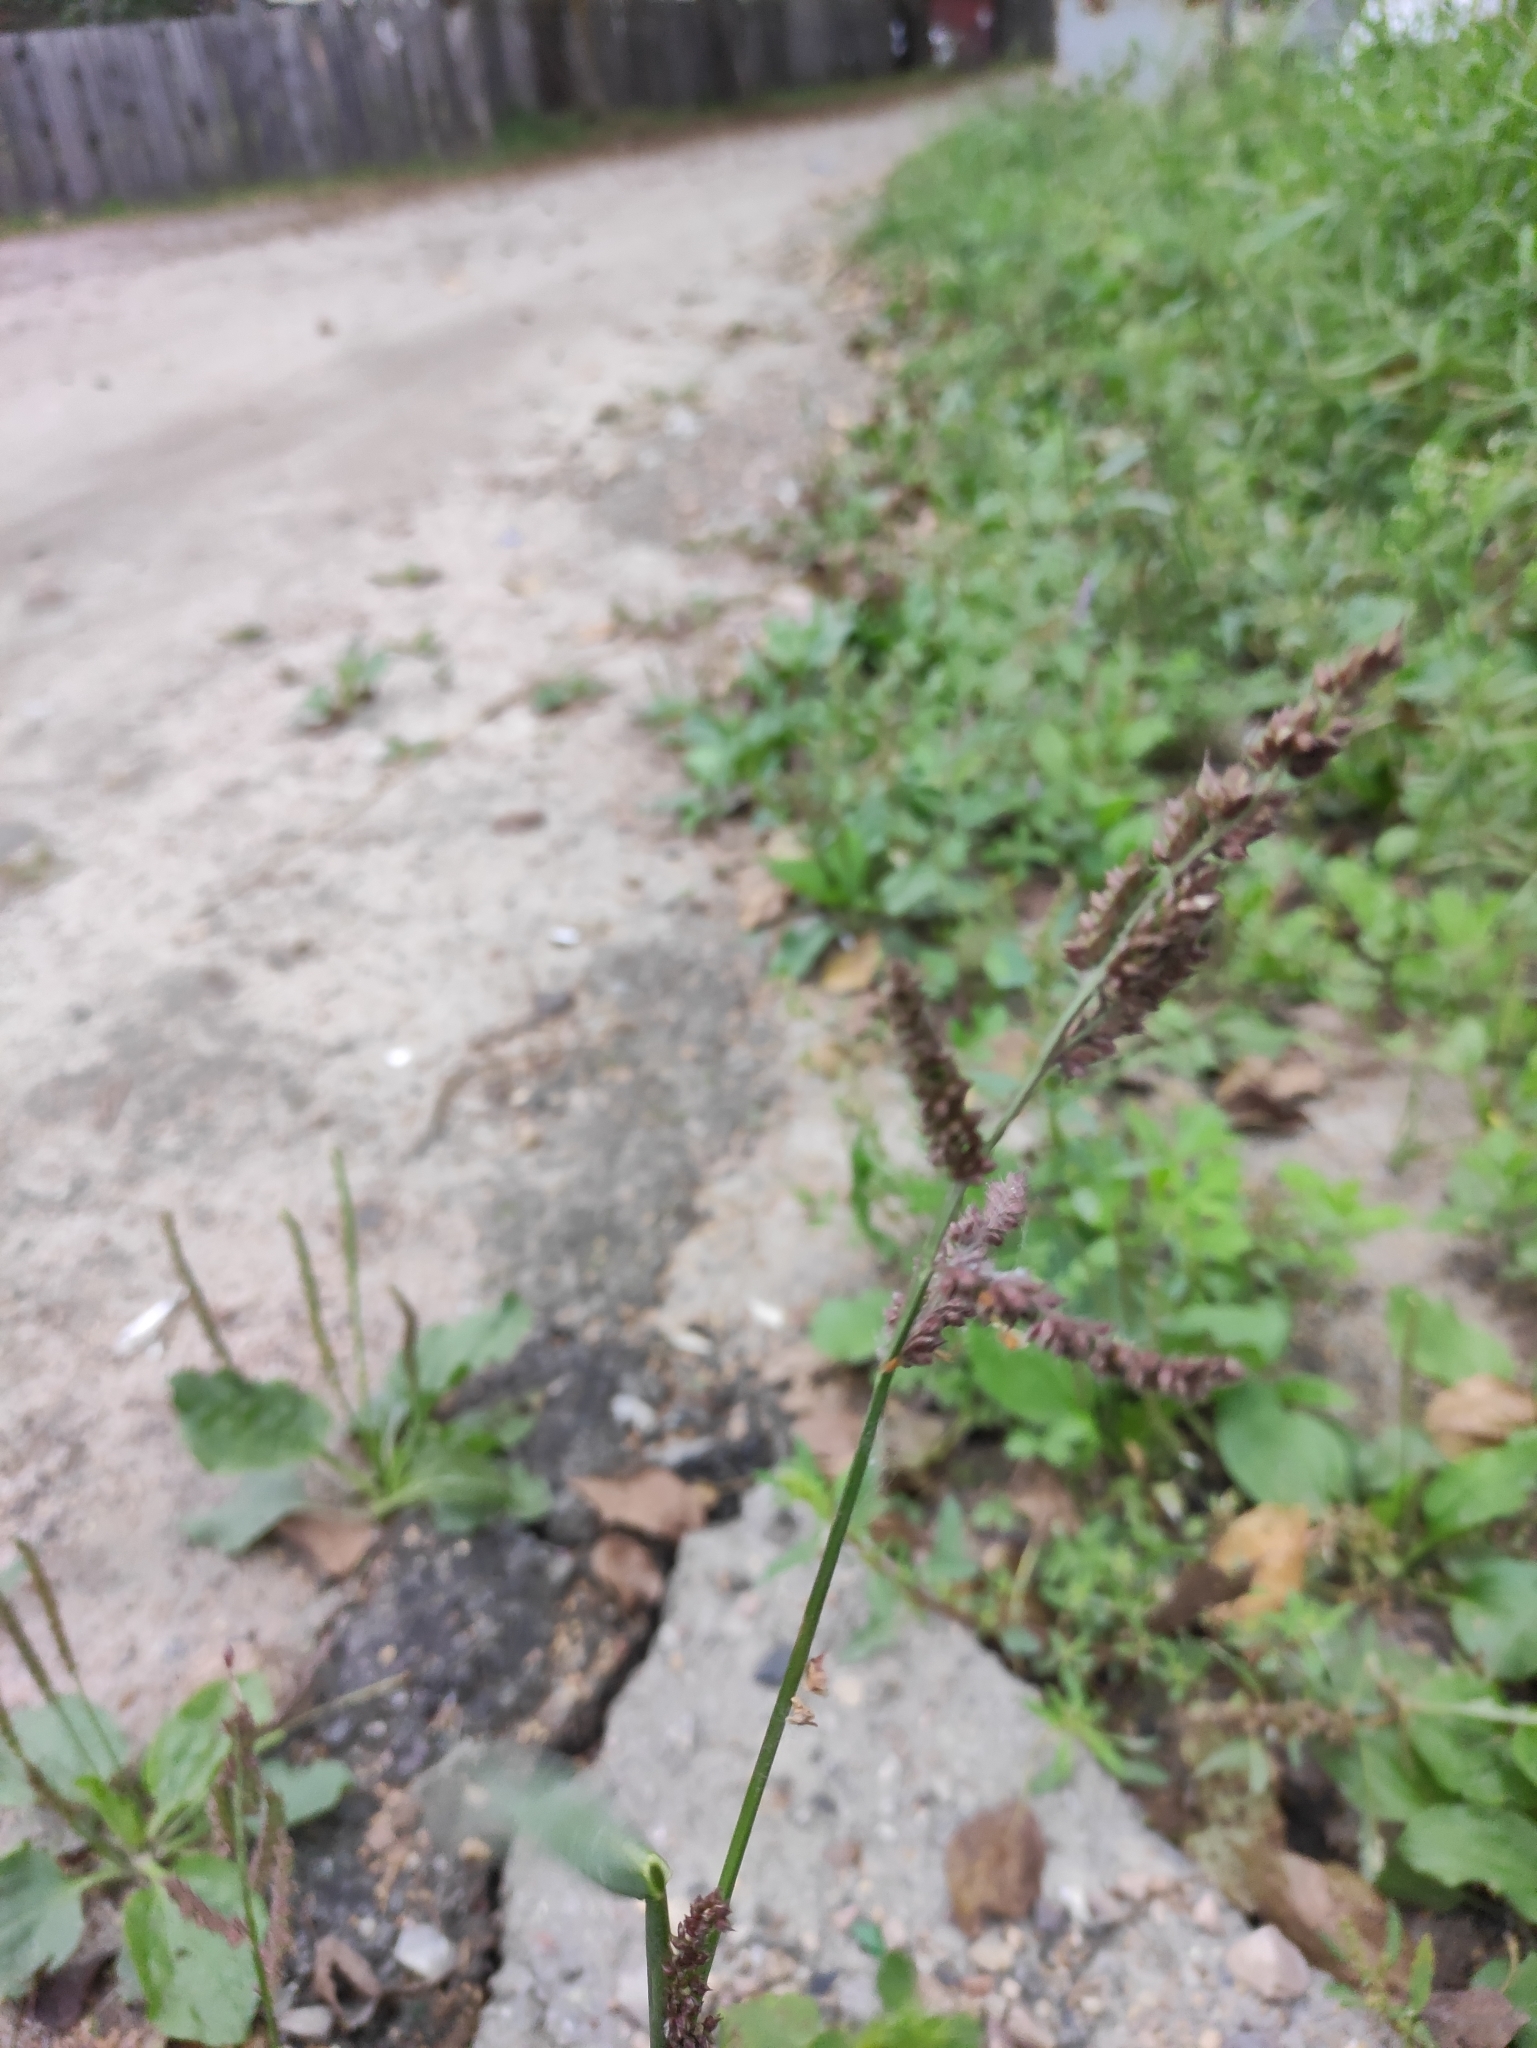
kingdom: Plantae
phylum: Tracheophyta
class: Liliopsida
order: Poales
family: Poaceae
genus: Echinochloa
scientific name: Echinochloa crus-galli
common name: Cockspur
